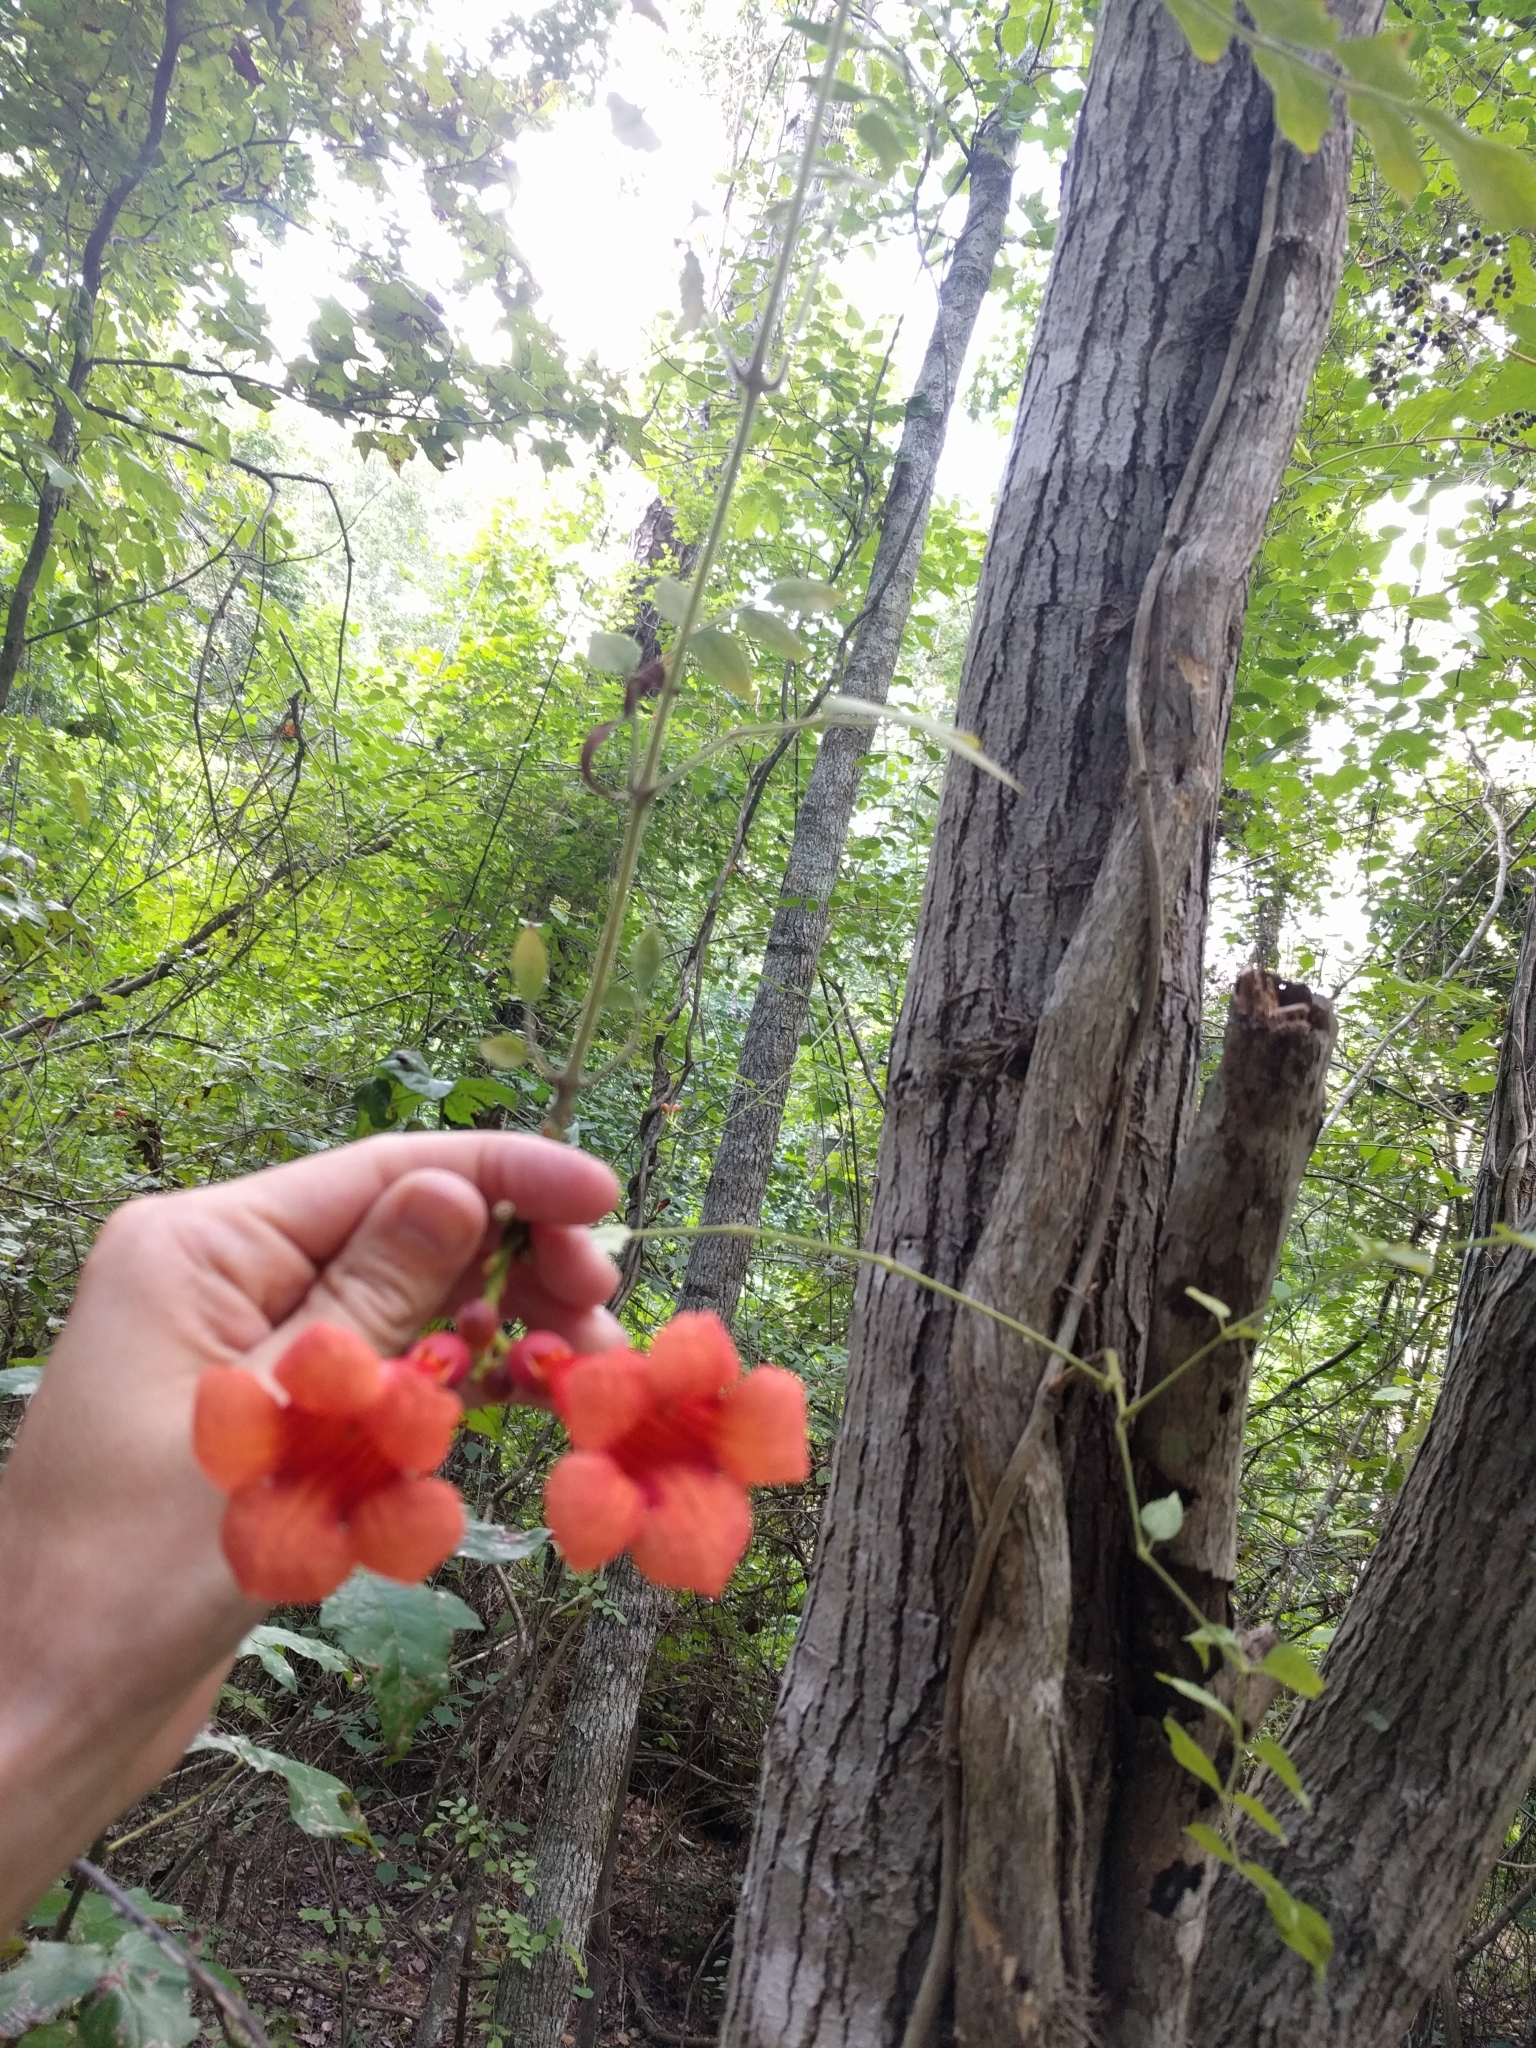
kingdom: Plantae
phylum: Tracheophyta
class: Magnoliopsida
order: Lamiales
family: Bignoniaceae
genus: Campsis
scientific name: Campsis radicans
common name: Trumpet-creeper
